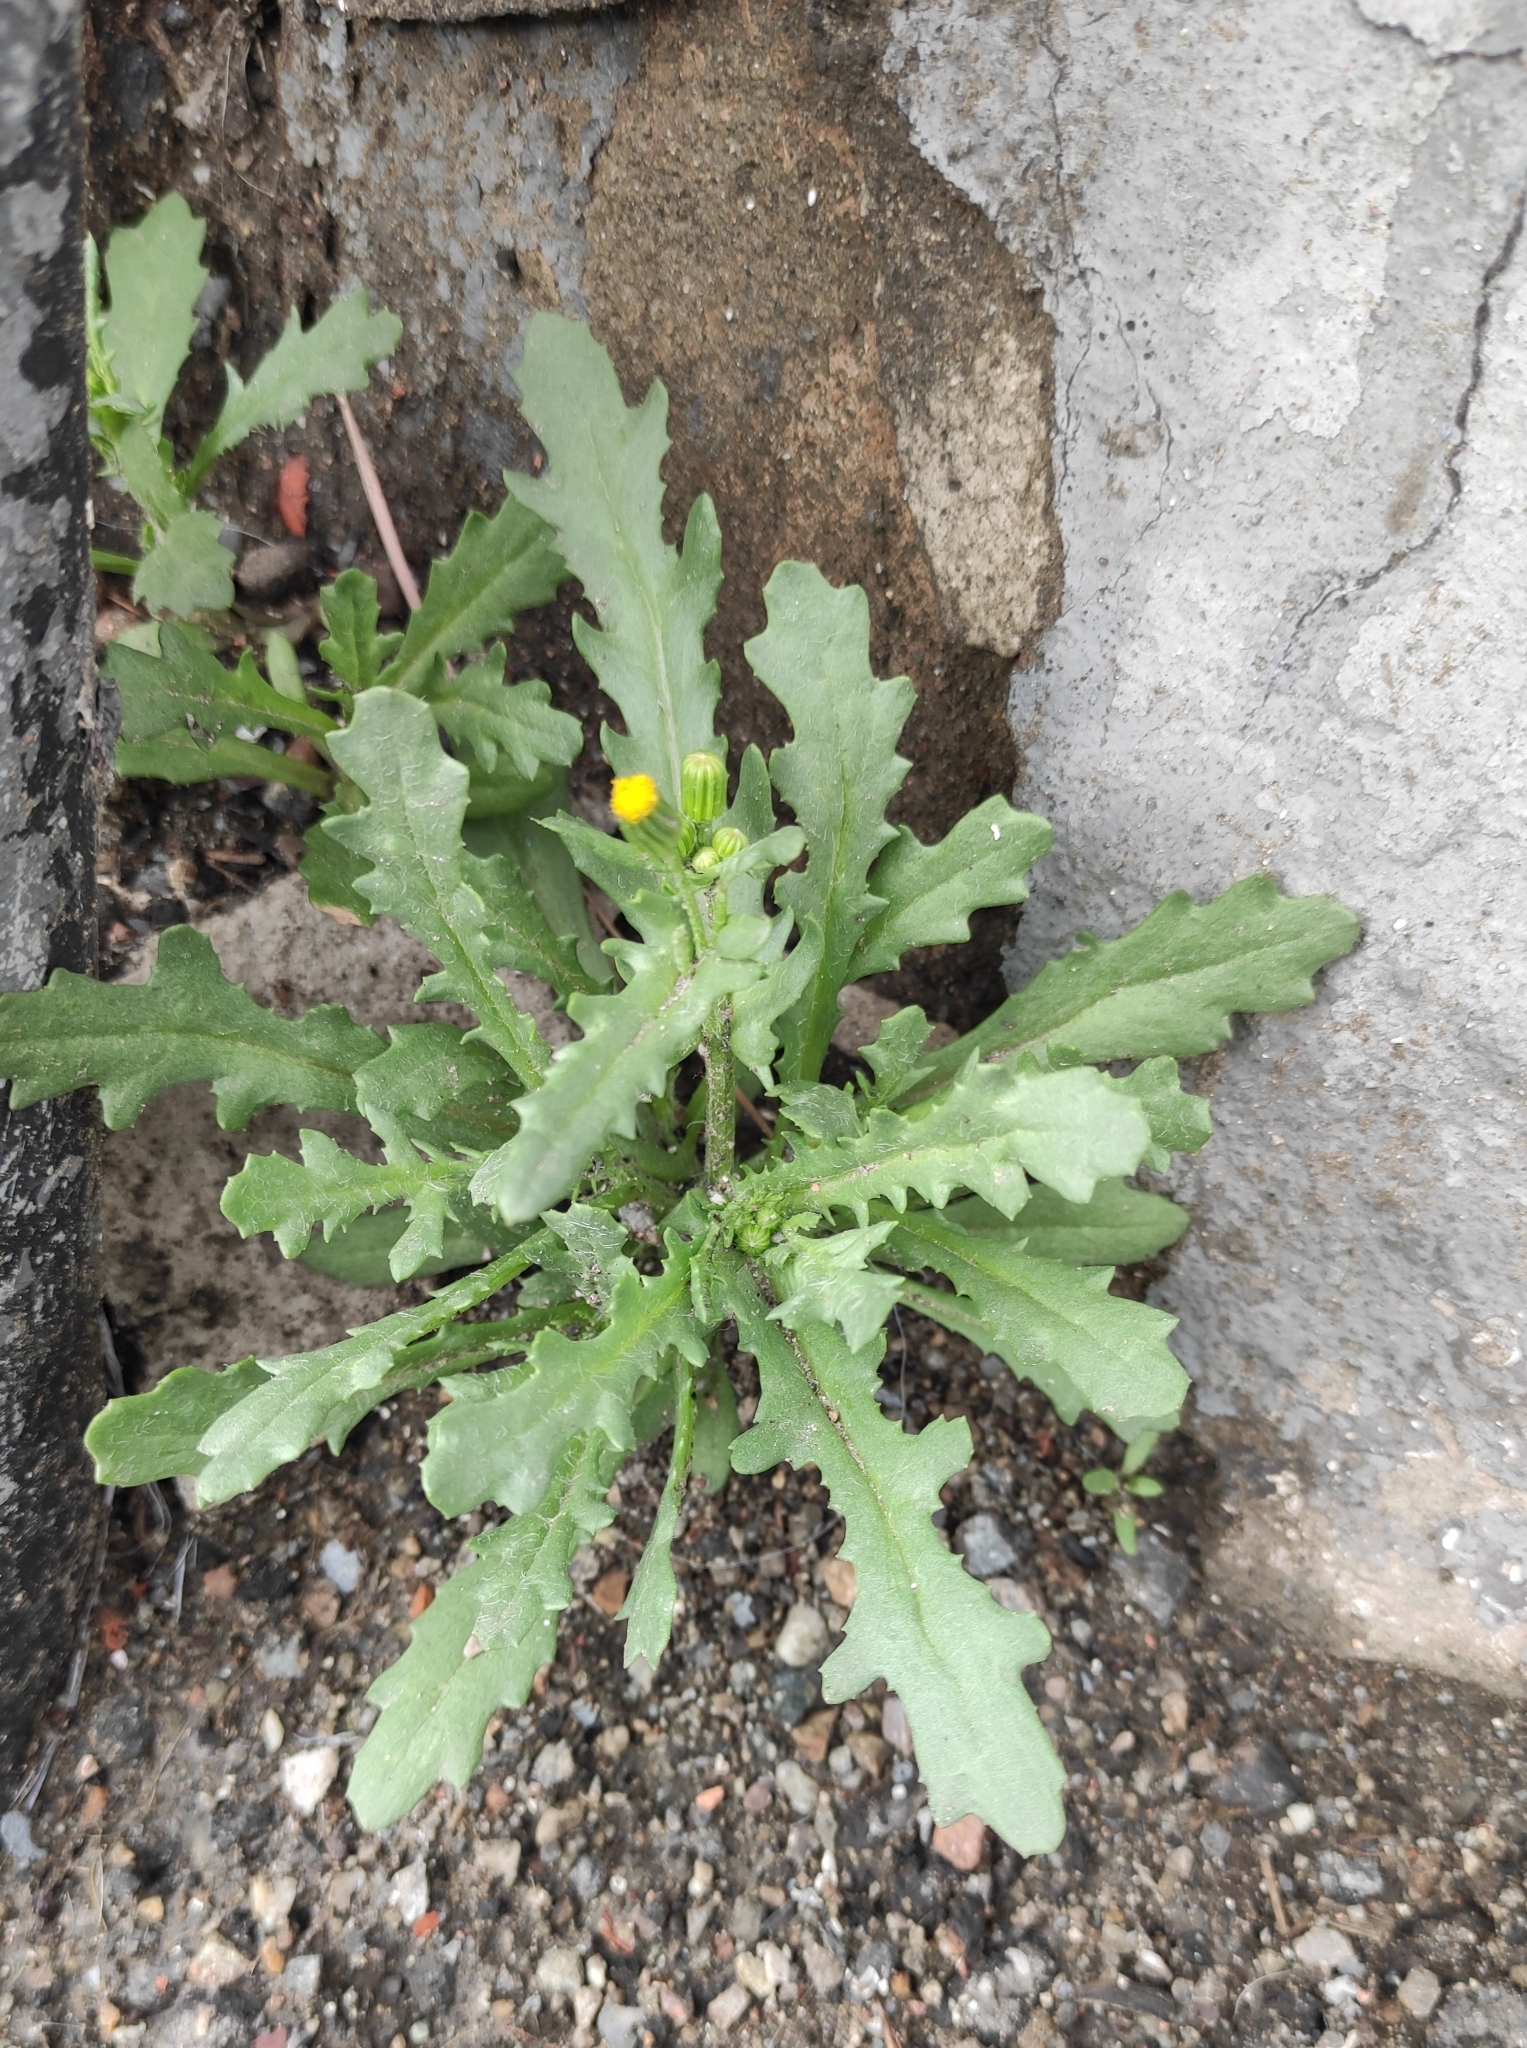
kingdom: Plantae
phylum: Tracheophyta
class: Magnoliopsida
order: Asterales
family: Asteraceae
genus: Senecio
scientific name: Senecio vulgaris
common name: Old-man-in-the-spring
